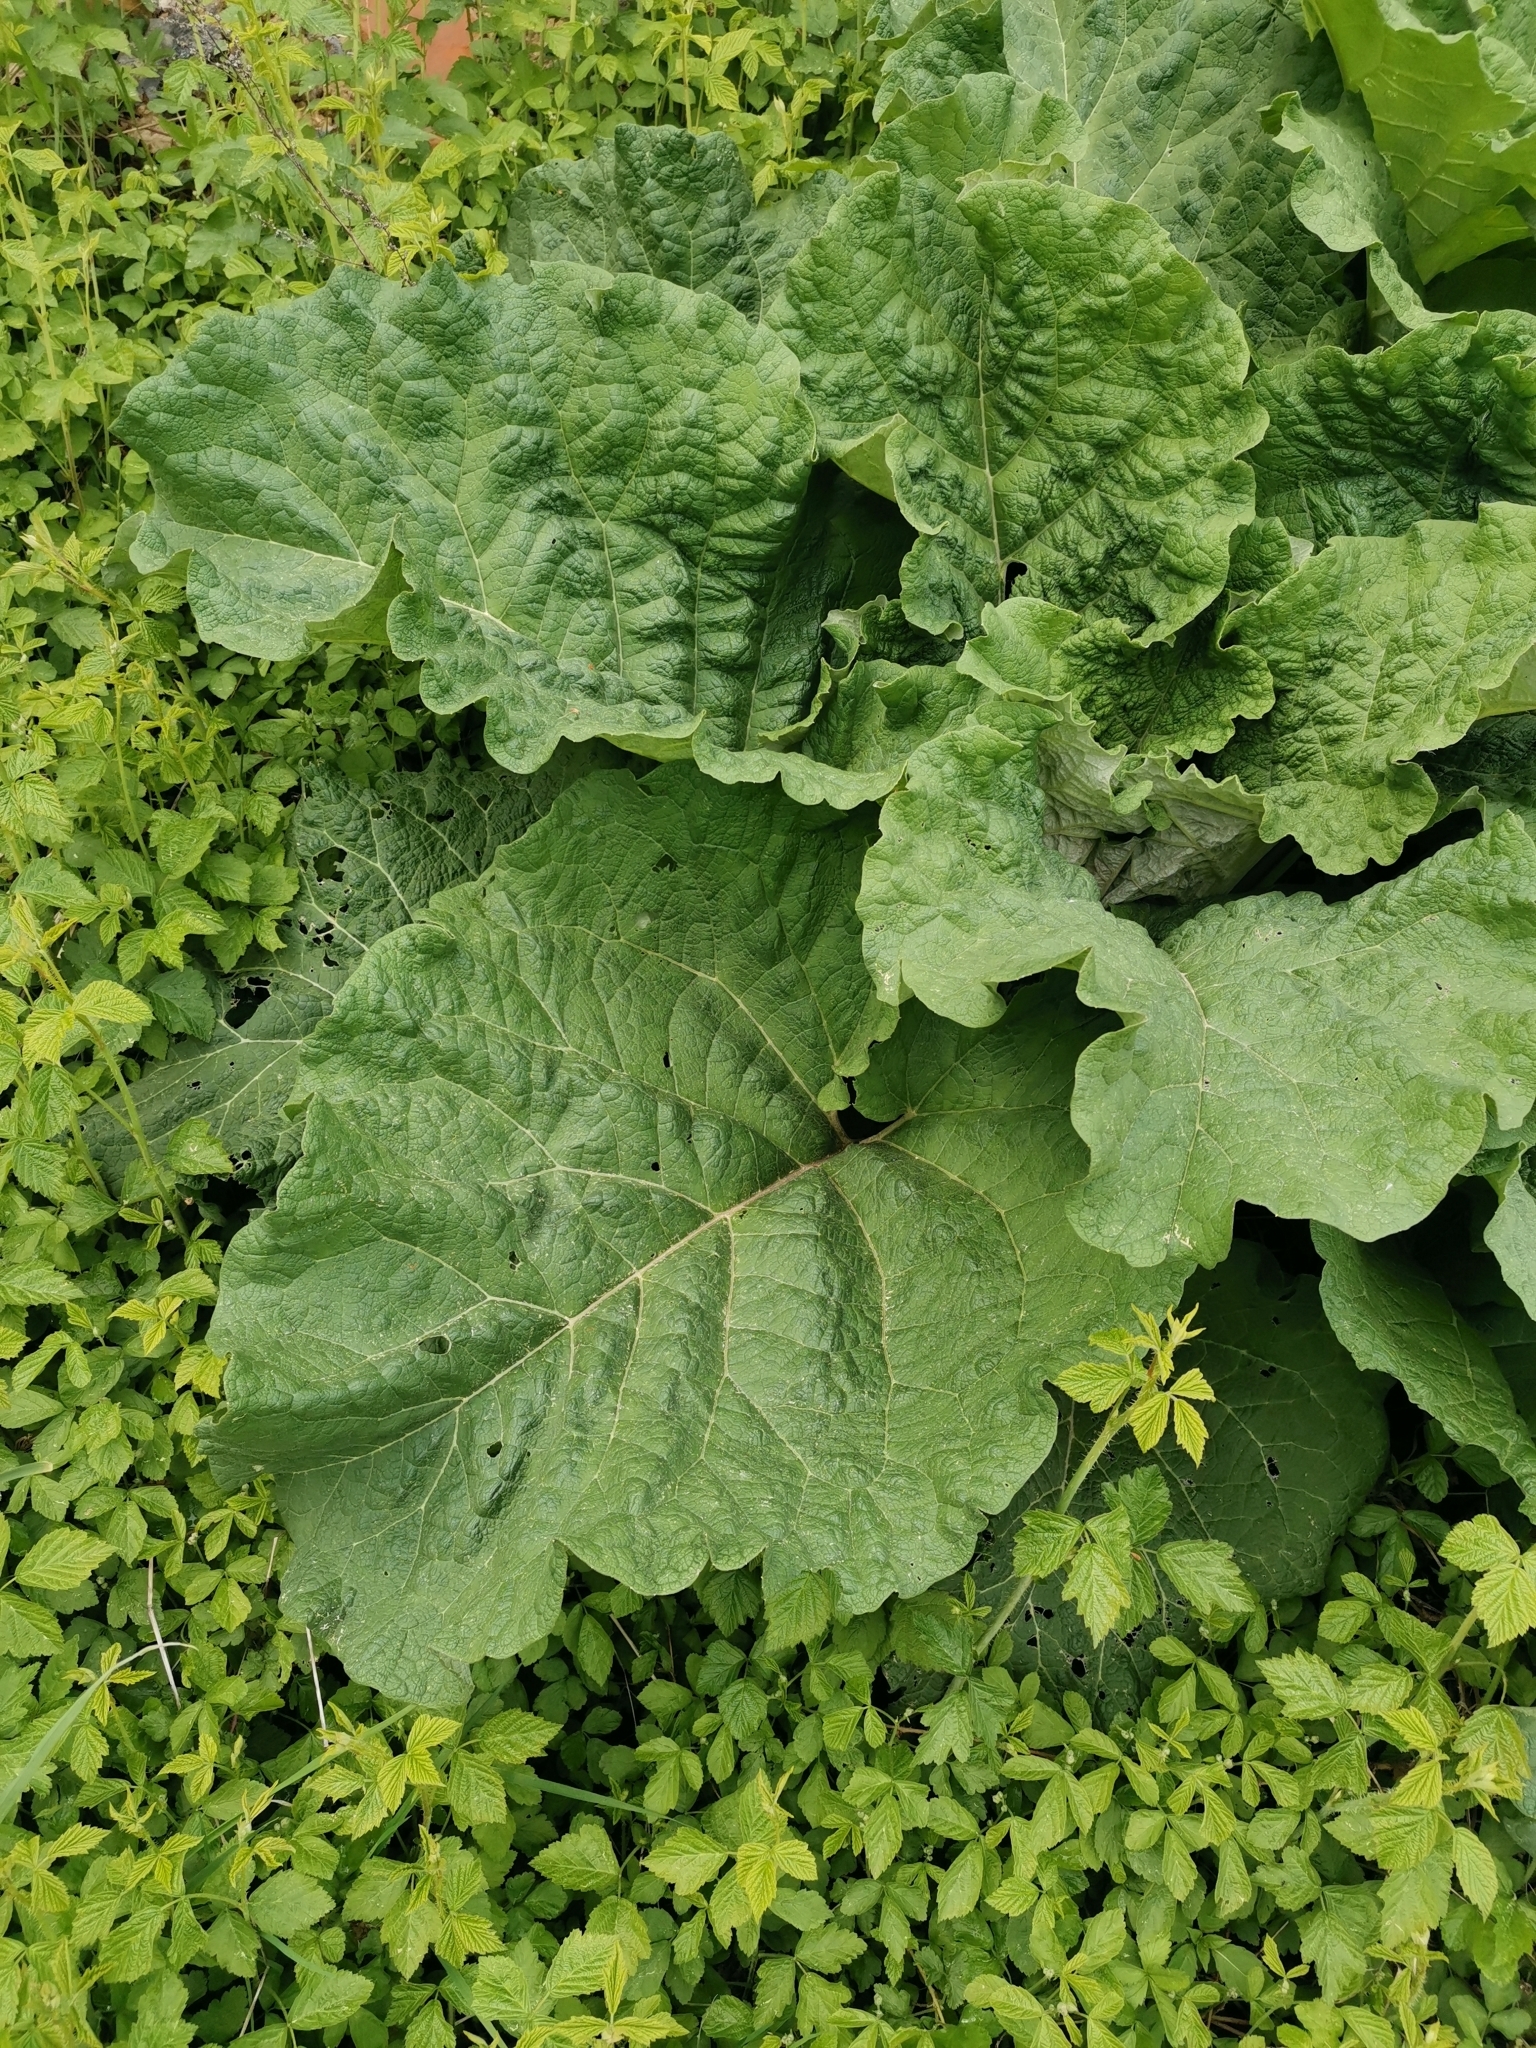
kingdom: Plantae
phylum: Tracheophyta
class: Magnoliopsida
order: Asterales
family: Asteraceae
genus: Arctium
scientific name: Arctium
